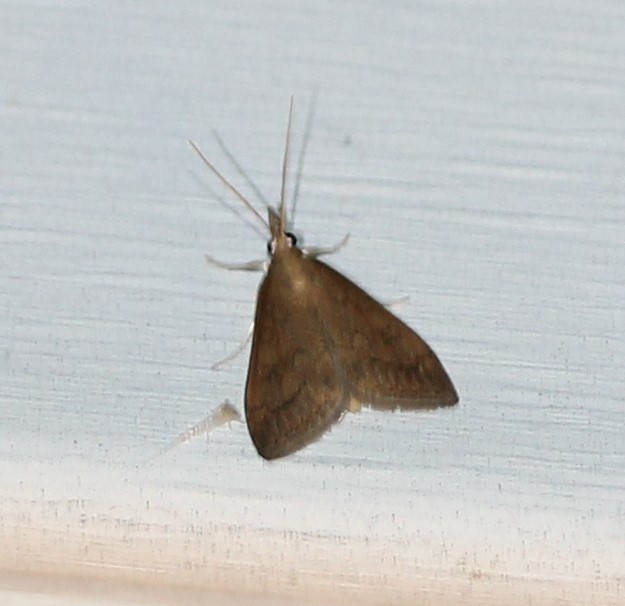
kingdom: Animalia
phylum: Arthropoda
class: Insecta
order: Lepidoptera
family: Crambidae
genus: Udea
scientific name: Udea rubigalis
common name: Celery leaftier moth
